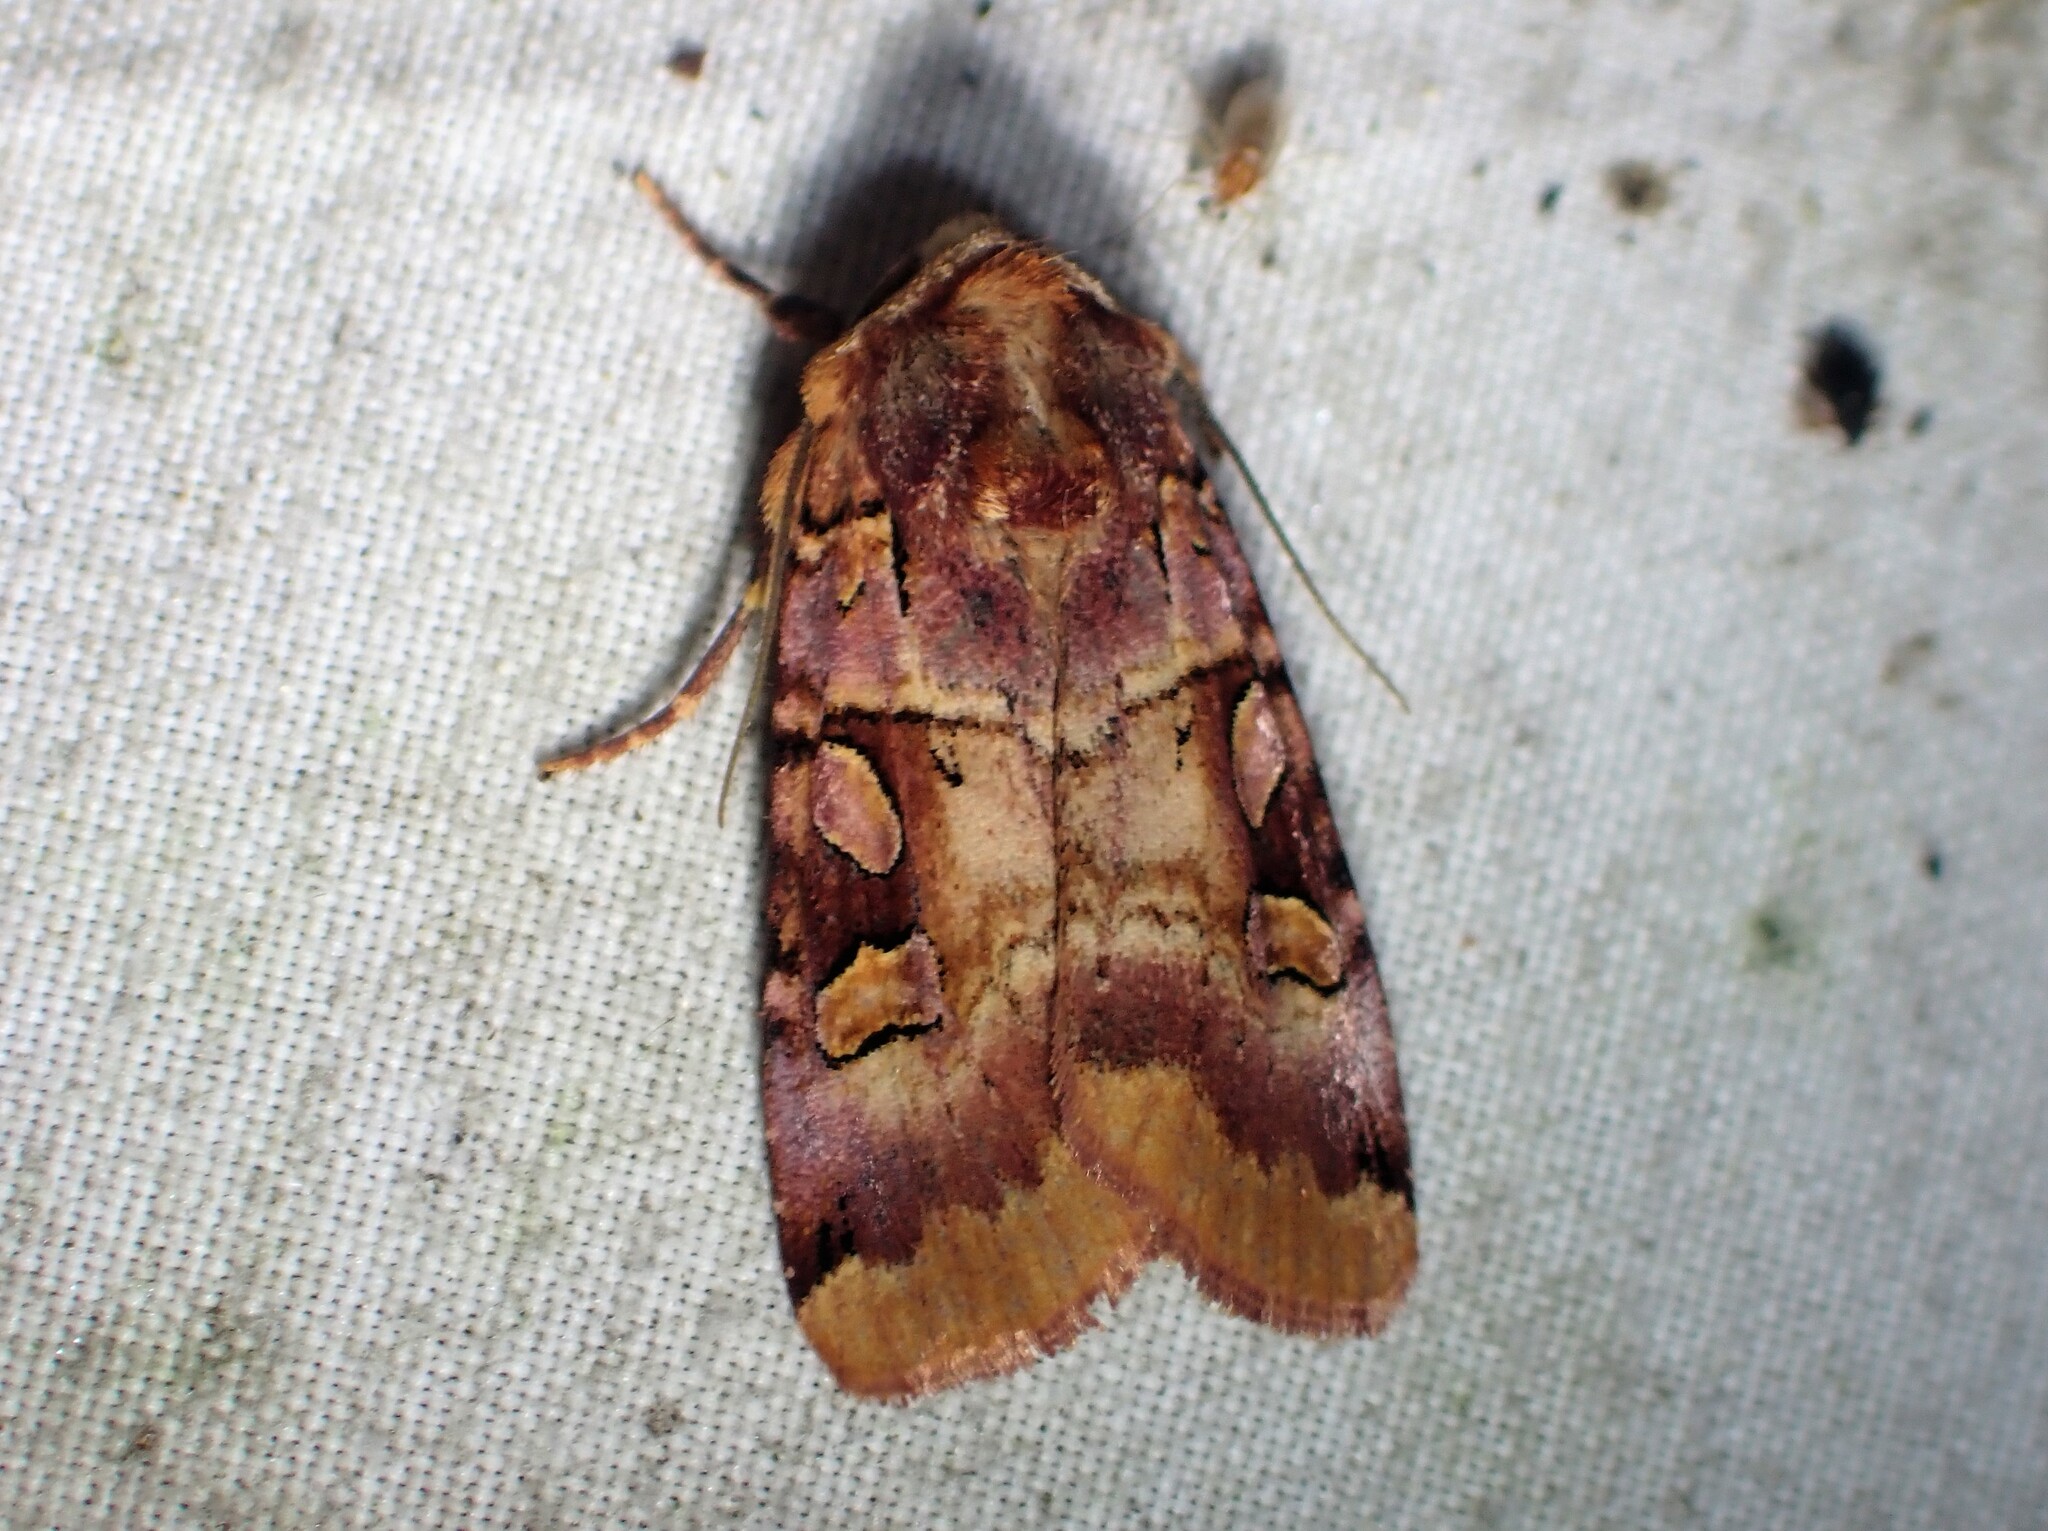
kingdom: Animalia
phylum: Arthropoda
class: Insecta
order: Lepidoptera
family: Noctuidae
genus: Xestia
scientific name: Xestia oblata
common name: Rosy dart
